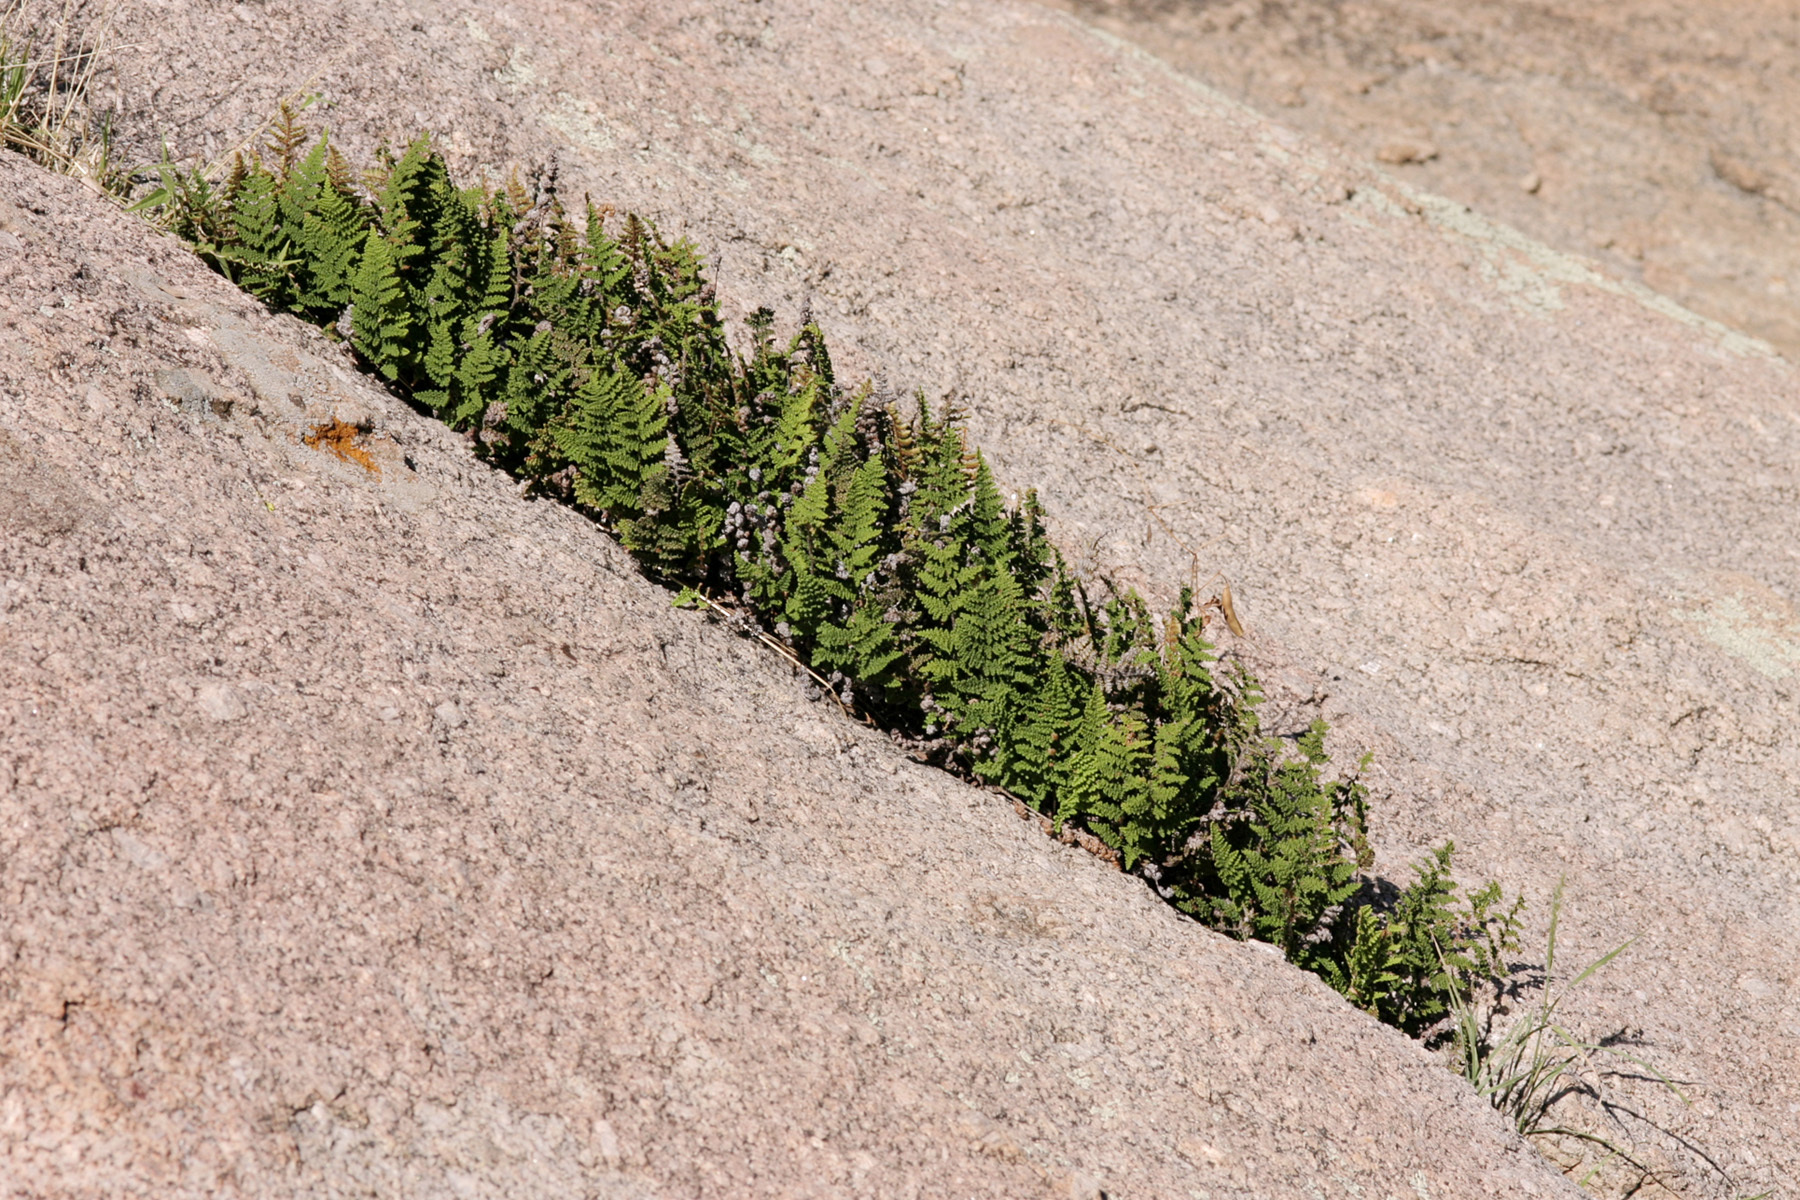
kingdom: Plantae
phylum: Tracheophyta
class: Polypodiopsida
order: Polypodiales
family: Pteridaceae
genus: Myriopteris
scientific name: Myriopteris fendleri
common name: Fendler's lip fern
